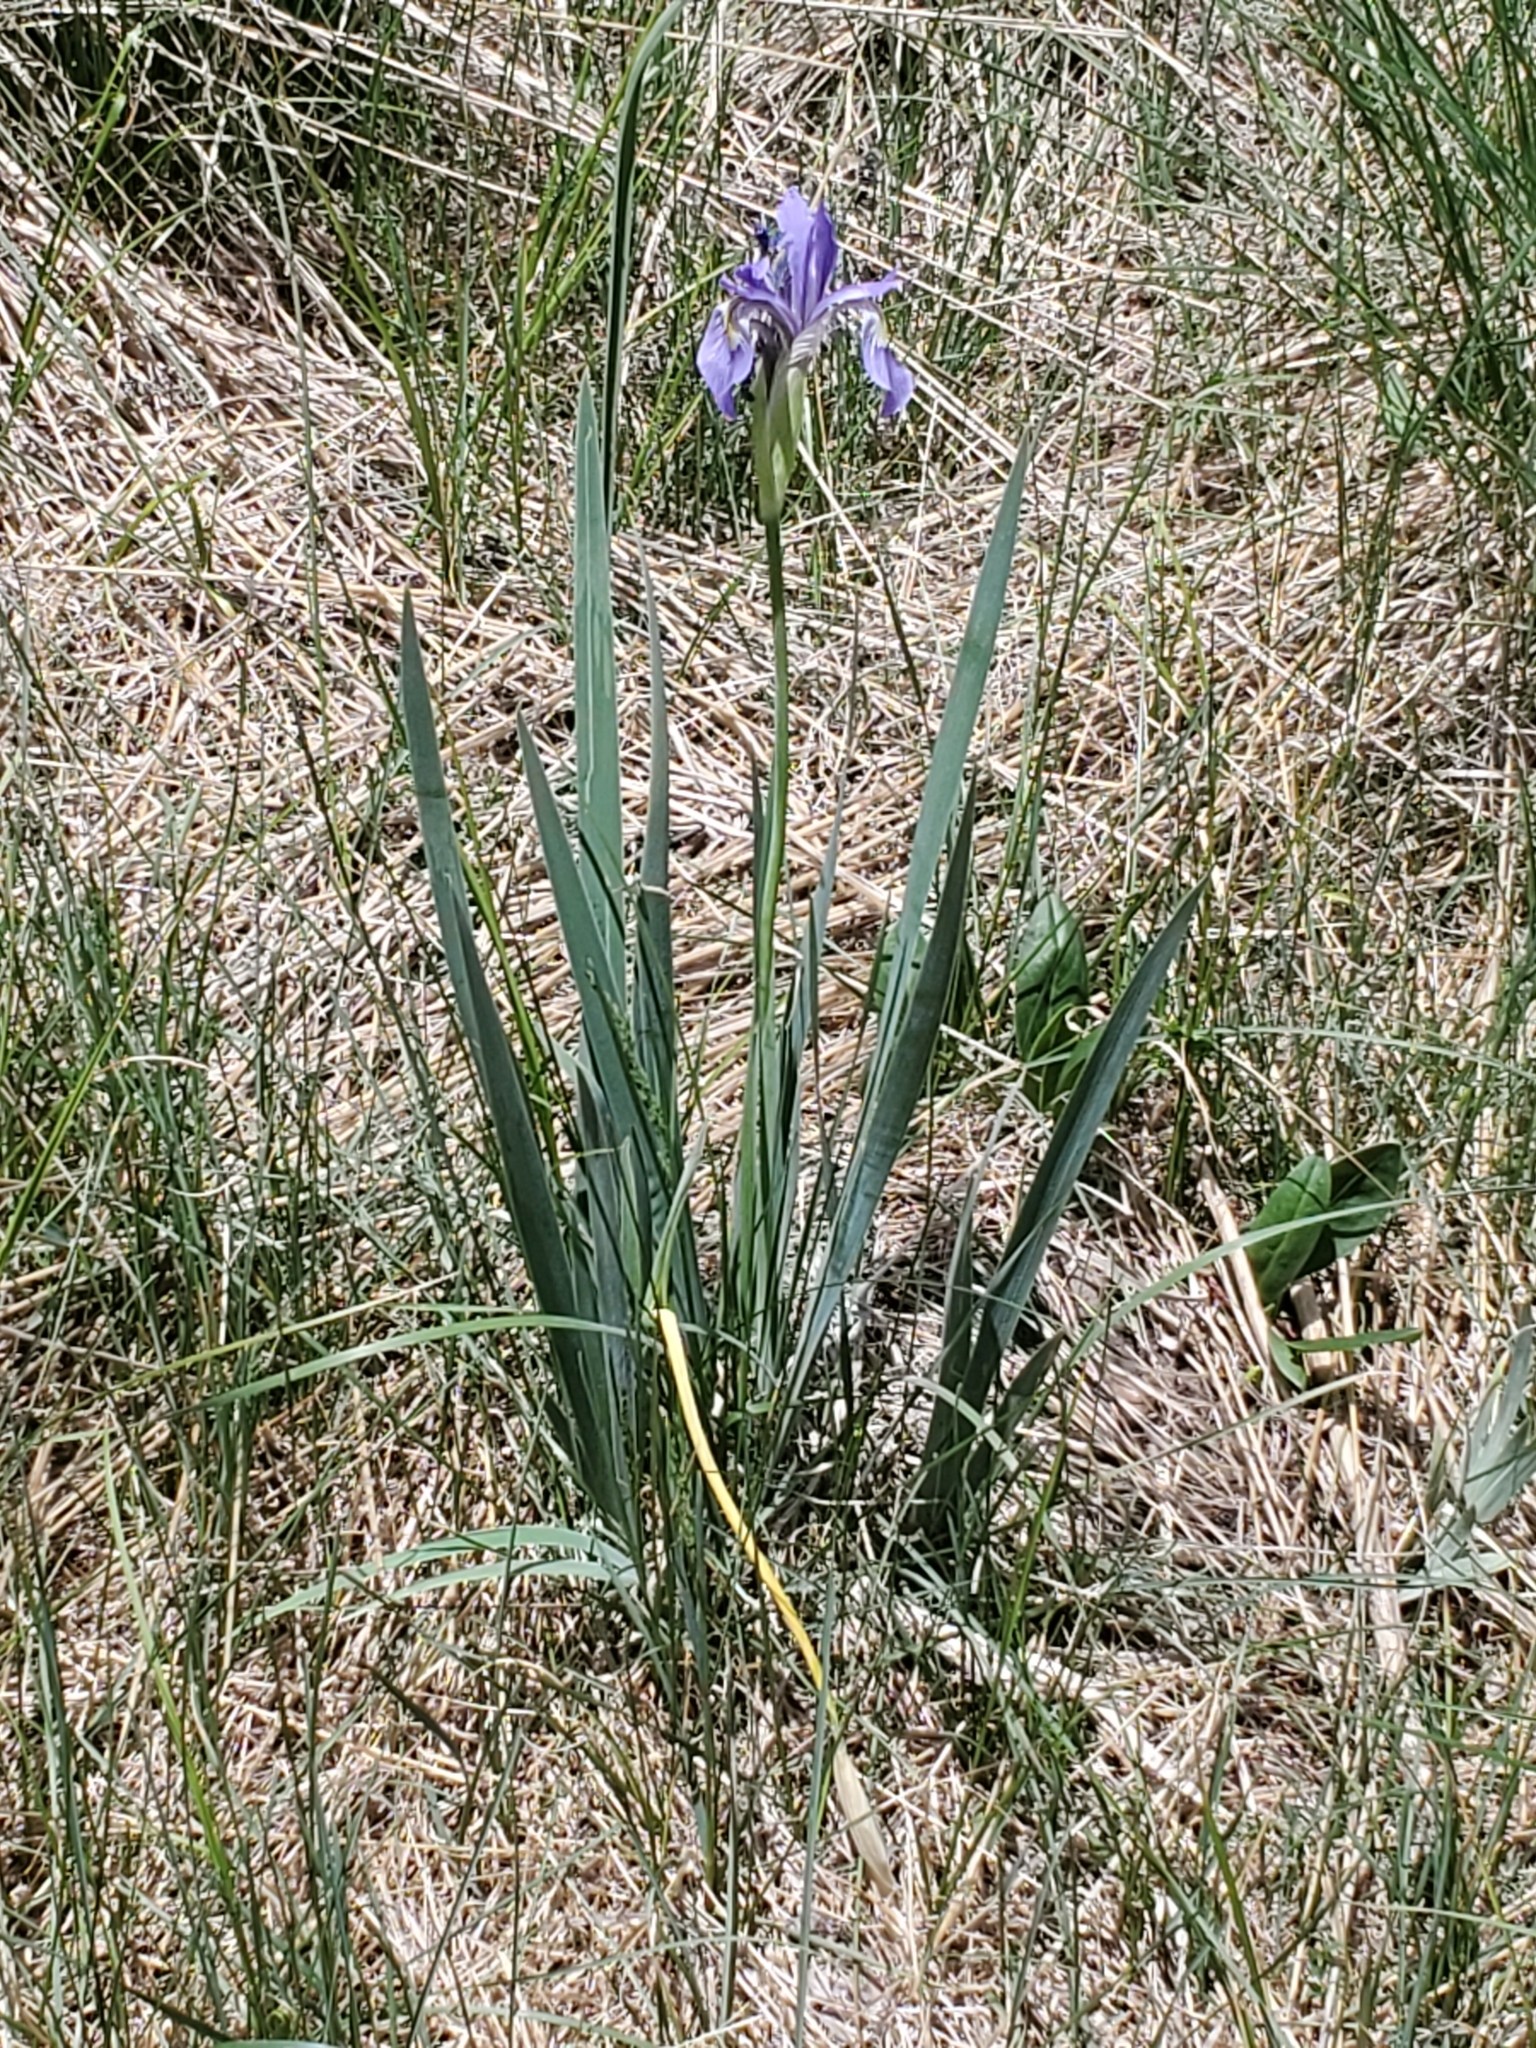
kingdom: Plantae
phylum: Tracheophyta
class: Liliopsida
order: Asparagales
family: Iridaceae
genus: Iris
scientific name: Iris missouriensis
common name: Rocky mountain iris
